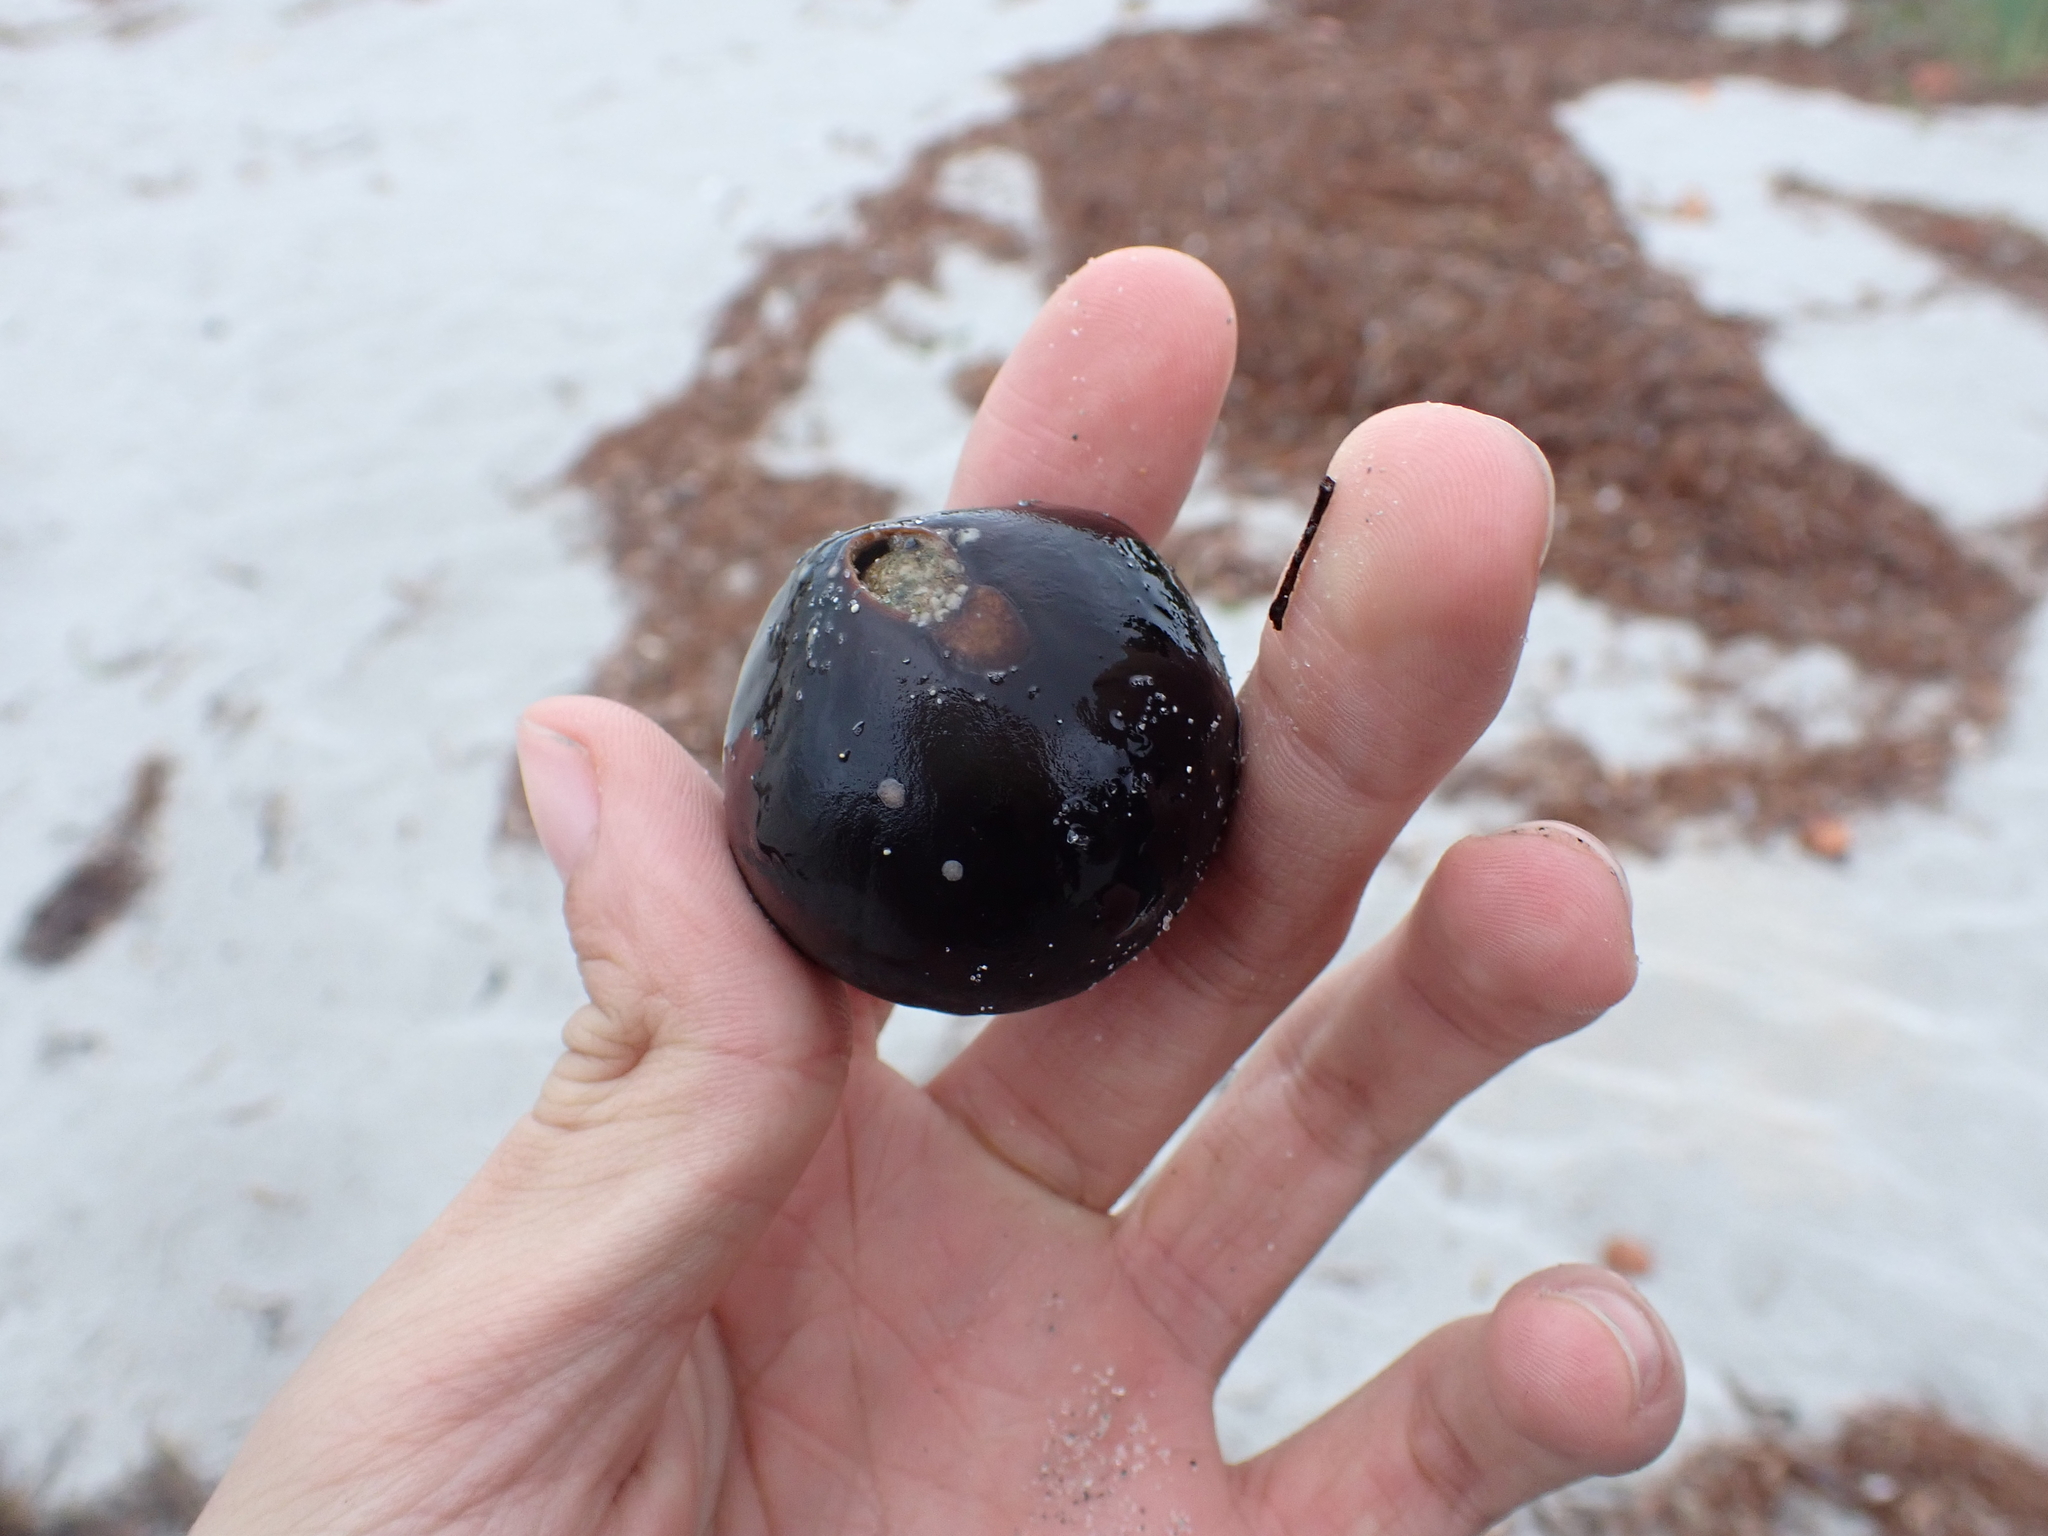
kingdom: Plantae
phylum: Tracheophyta
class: Liliopsida
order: Arecales
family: Arecaceae
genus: Manicaria
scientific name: Manicaria saccifera
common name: Sea coconut
